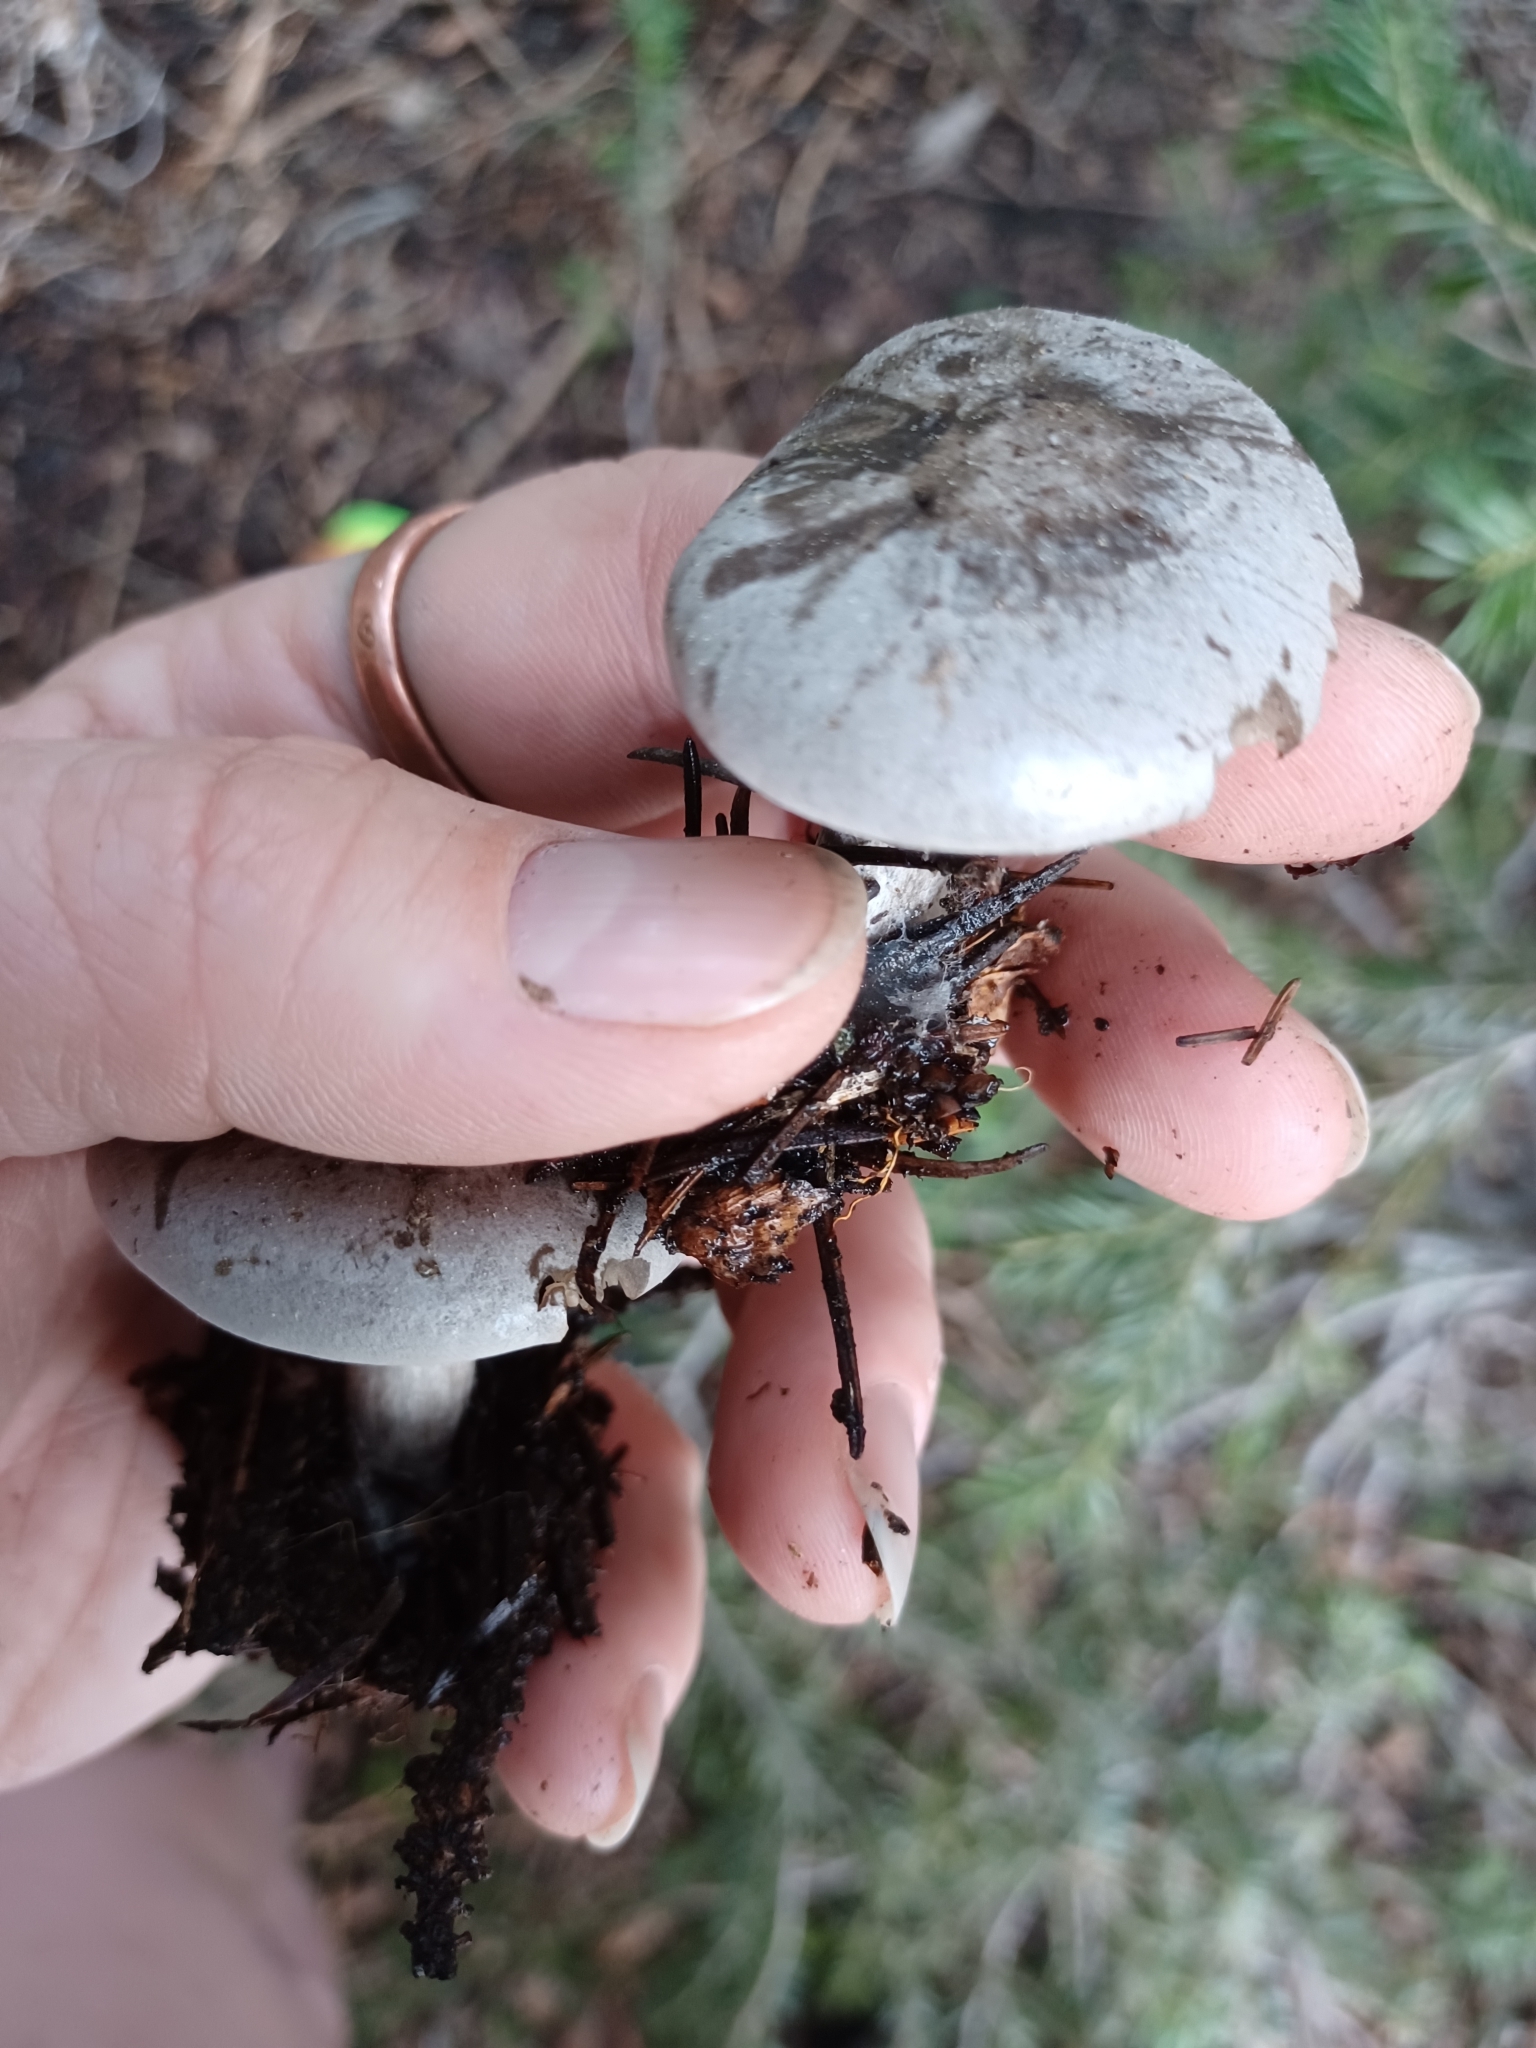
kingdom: Fungi
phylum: Basidiomycota
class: Agaricomycetes
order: Agaricales
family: Tricholomataceae
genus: Clitocybe
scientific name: Clitocybe glacialis
